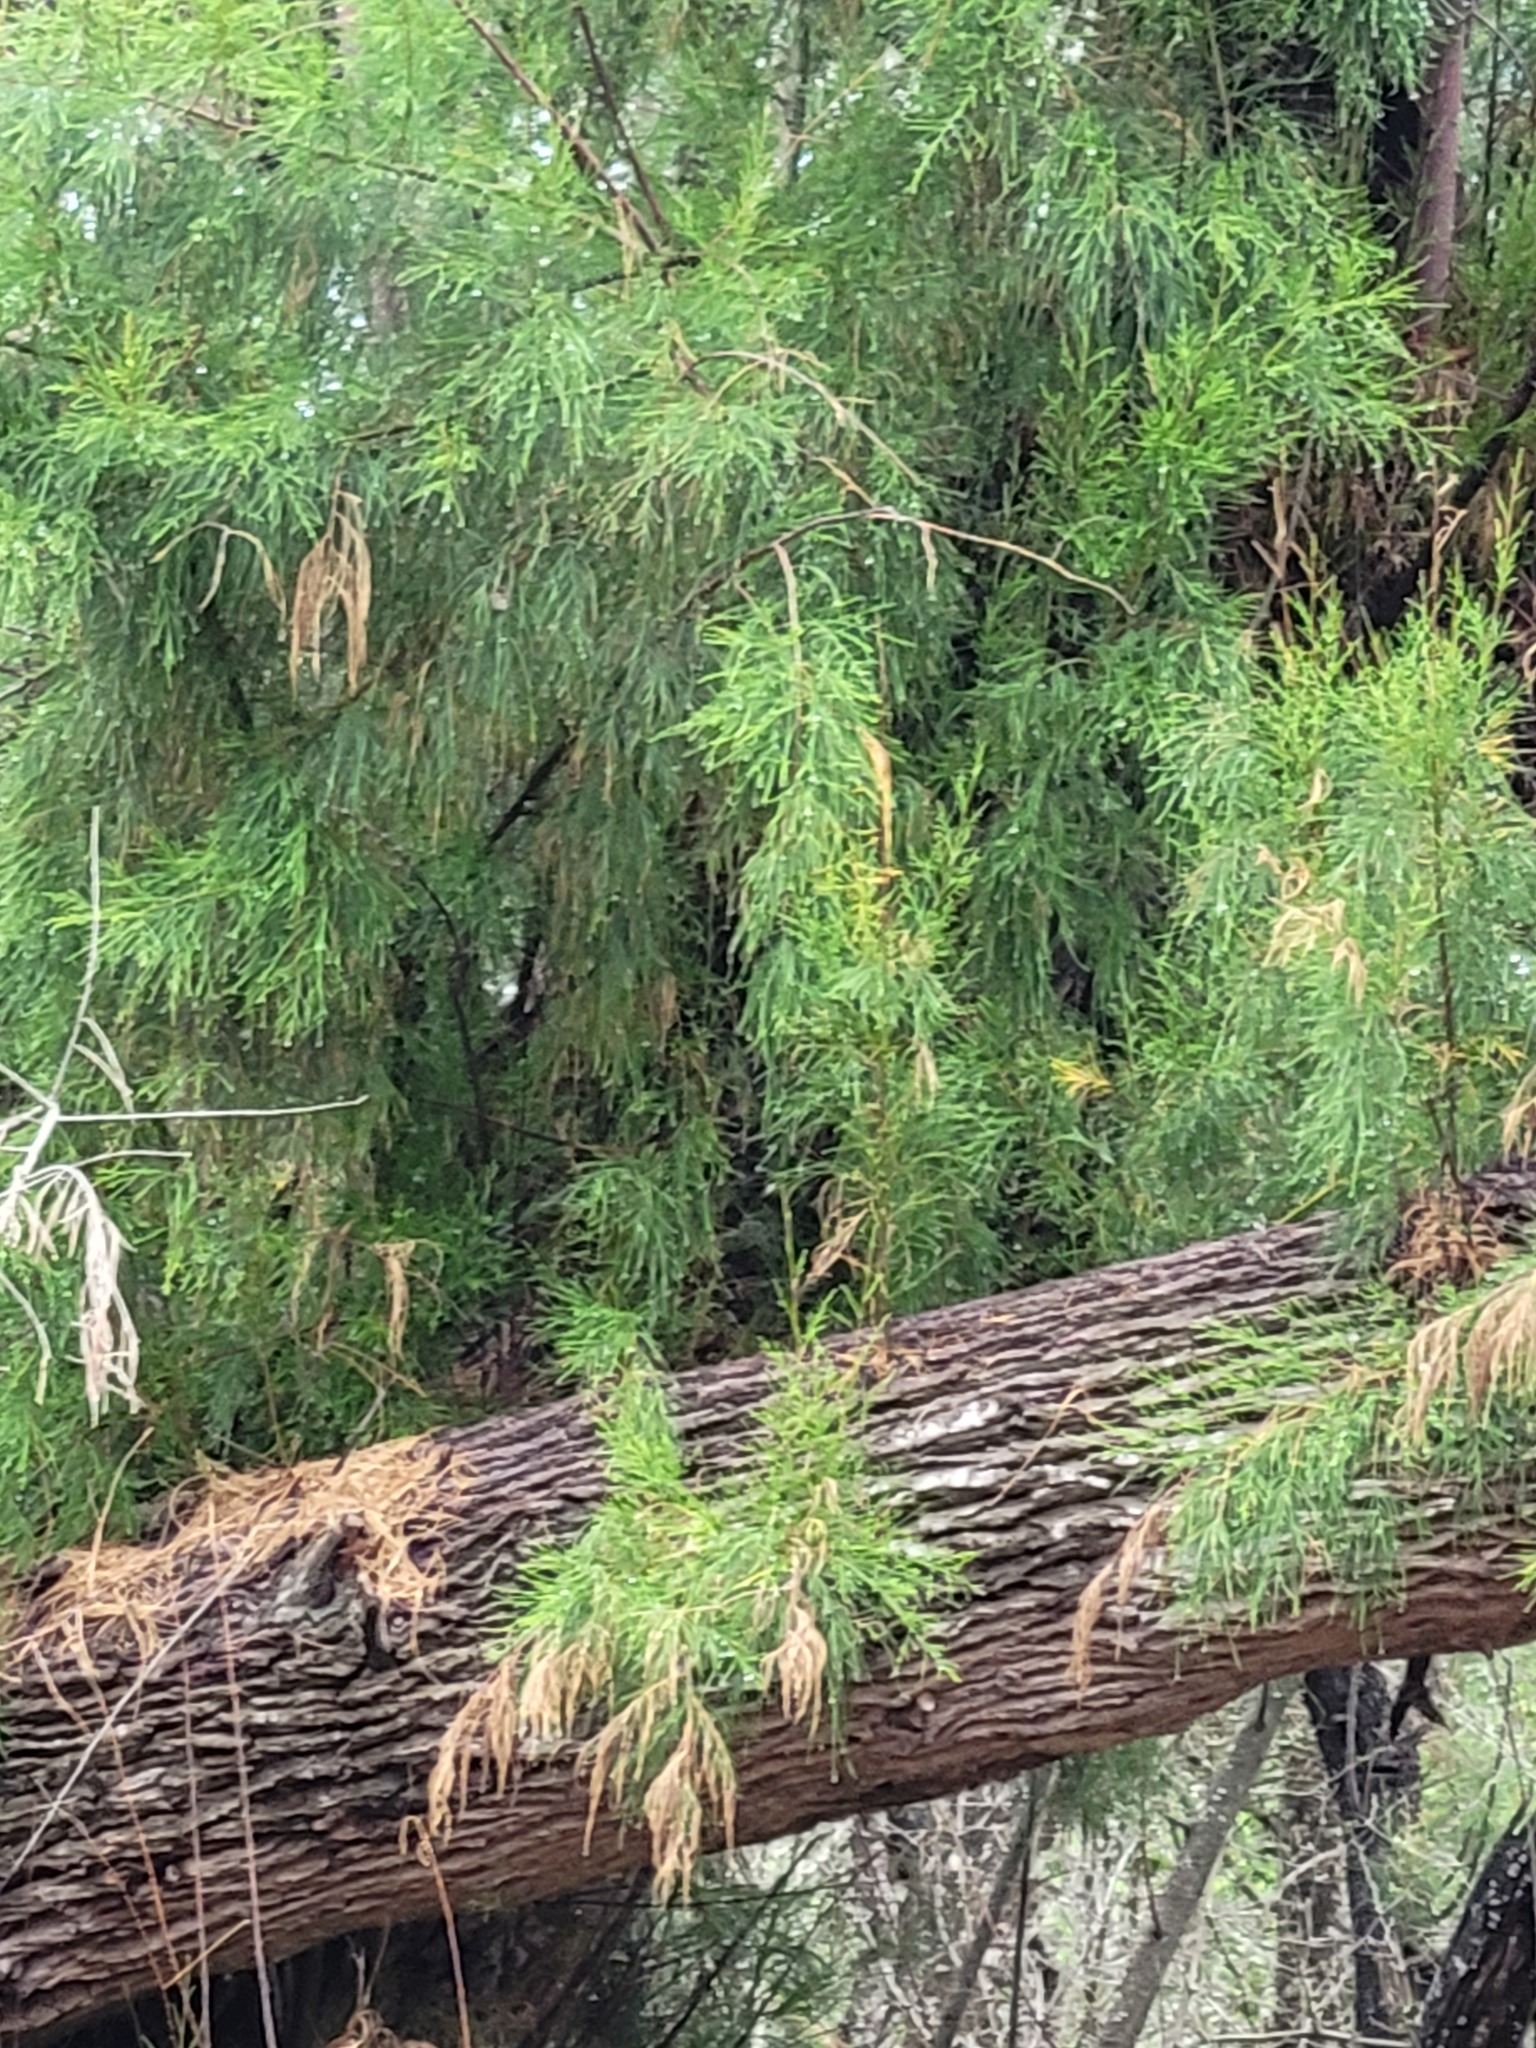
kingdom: Plantae
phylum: Tracheophyta
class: Magnoliopsida
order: Caryophyllales
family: Tamaricaceae
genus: Tamarix
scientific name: Tamarix aphylla
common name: Athel tamarisk
